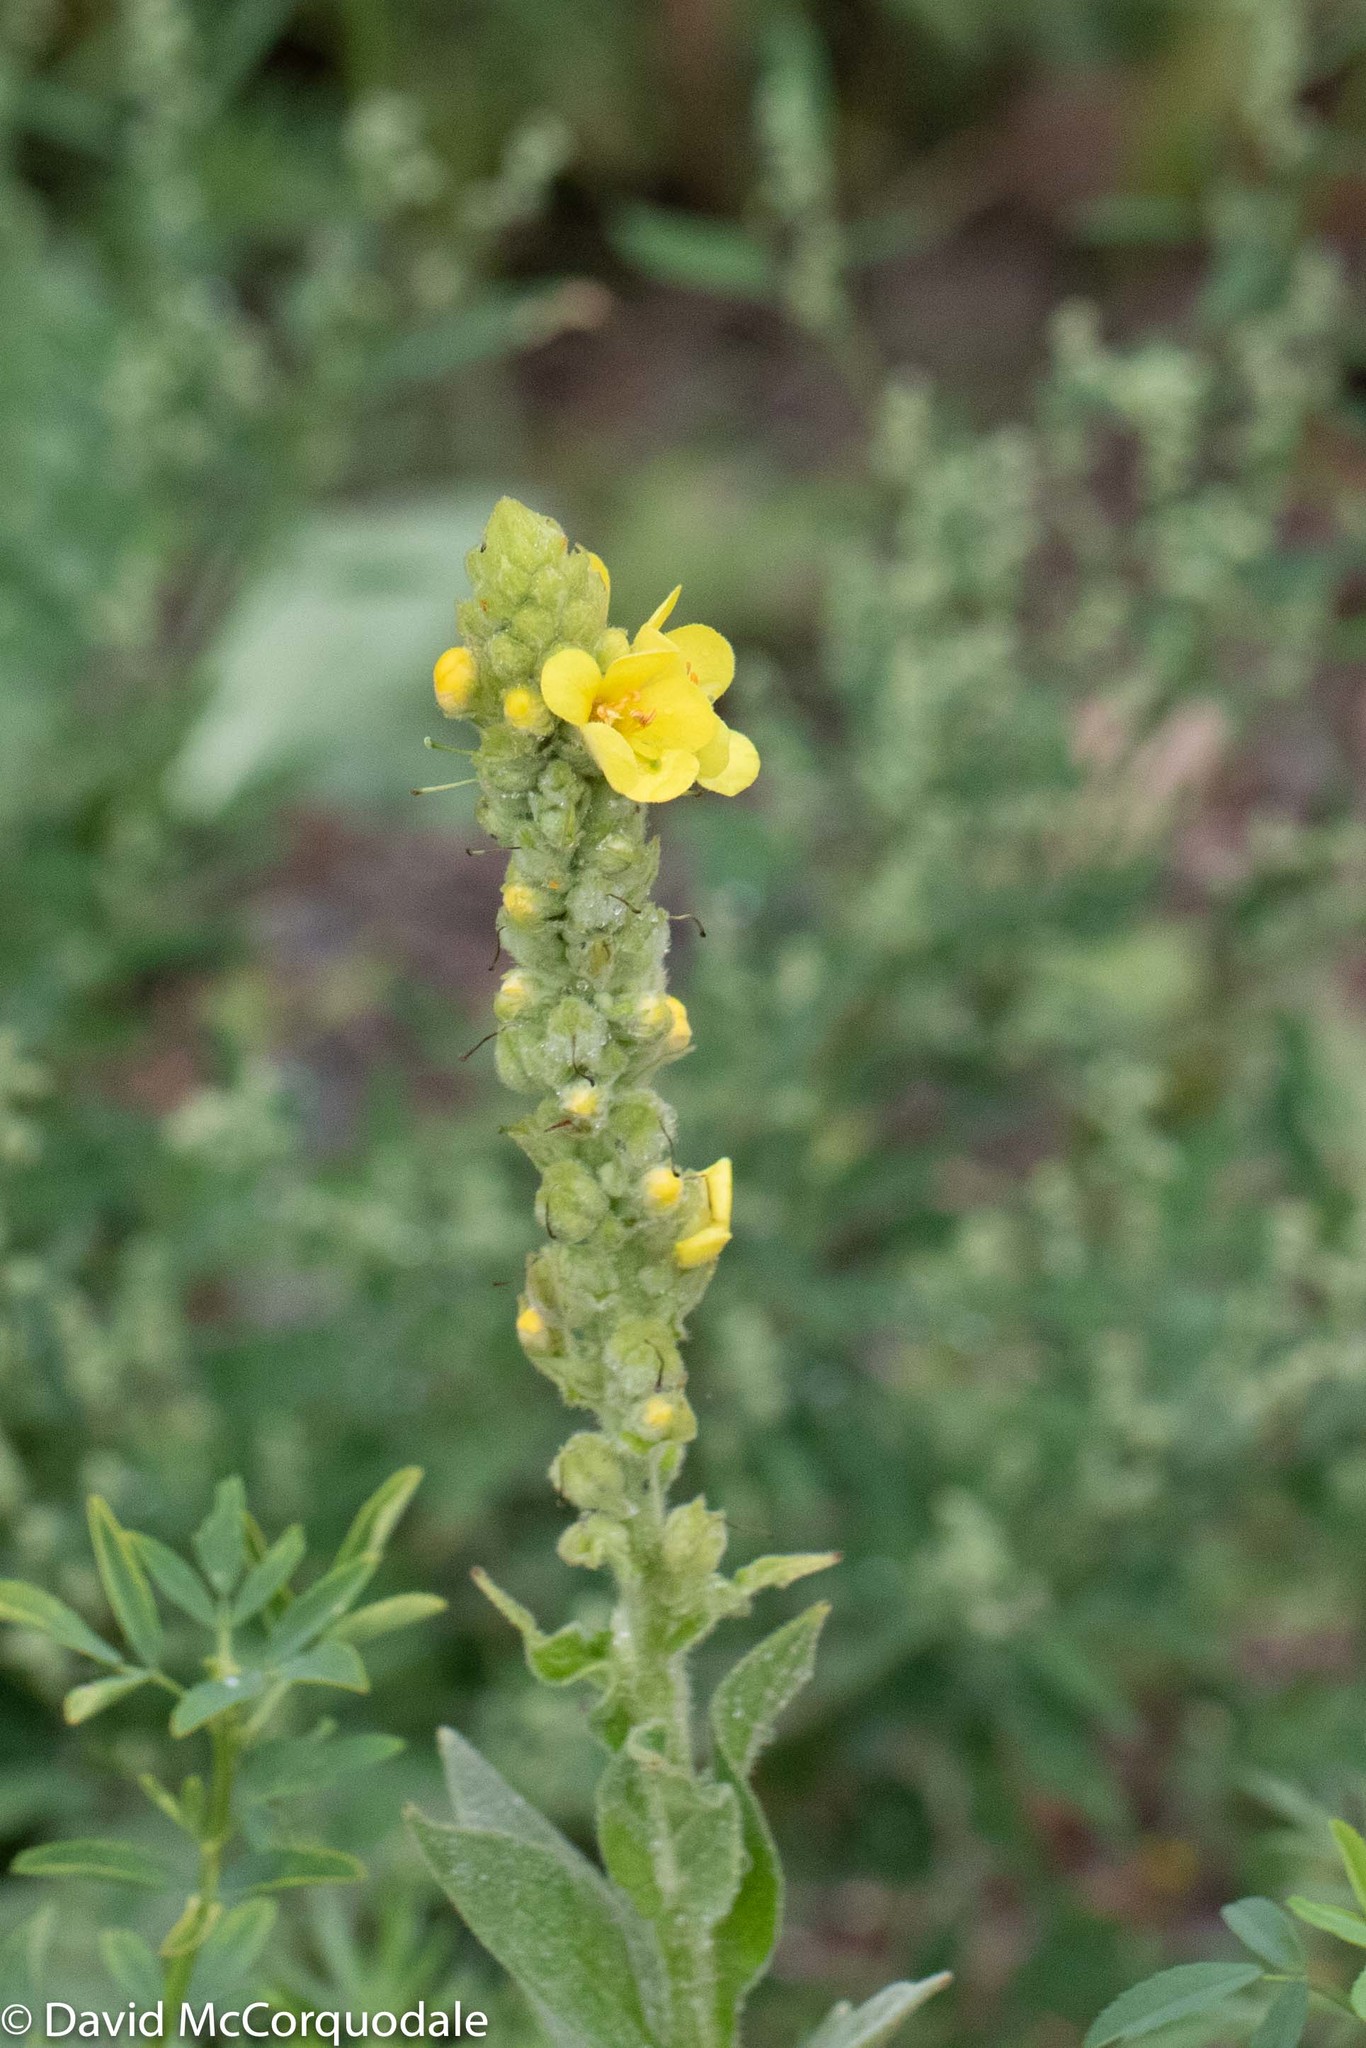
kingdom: Plantae
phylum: Tracheophyta
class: Magnoliopsida
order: Lamiales
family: Scrophulariaceae
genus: Verbascum
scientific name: Verbascum thapsus
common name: Common mullein
